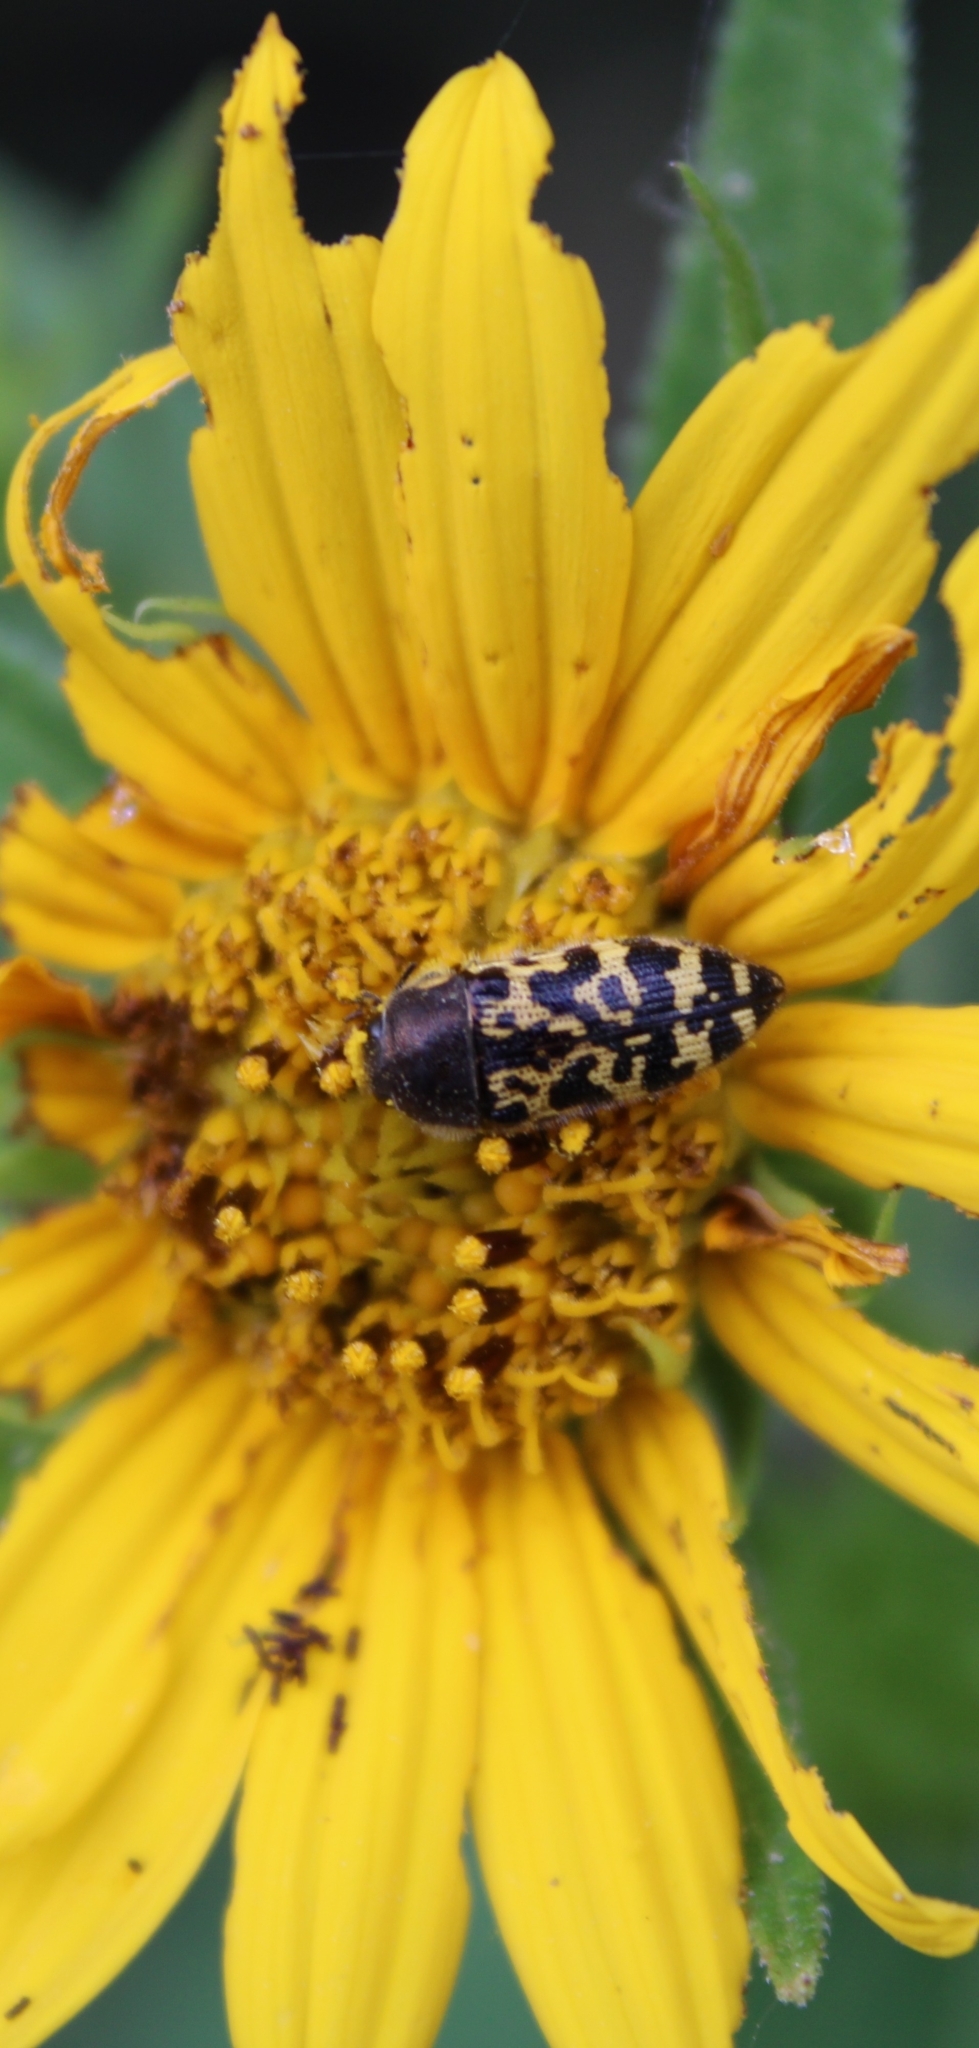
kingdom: Animalia
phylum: Arthropoda
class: Insecta
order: Coleoptera
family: Buprestidae
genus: Acmaeodera
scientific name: Acmaeodera mixta
